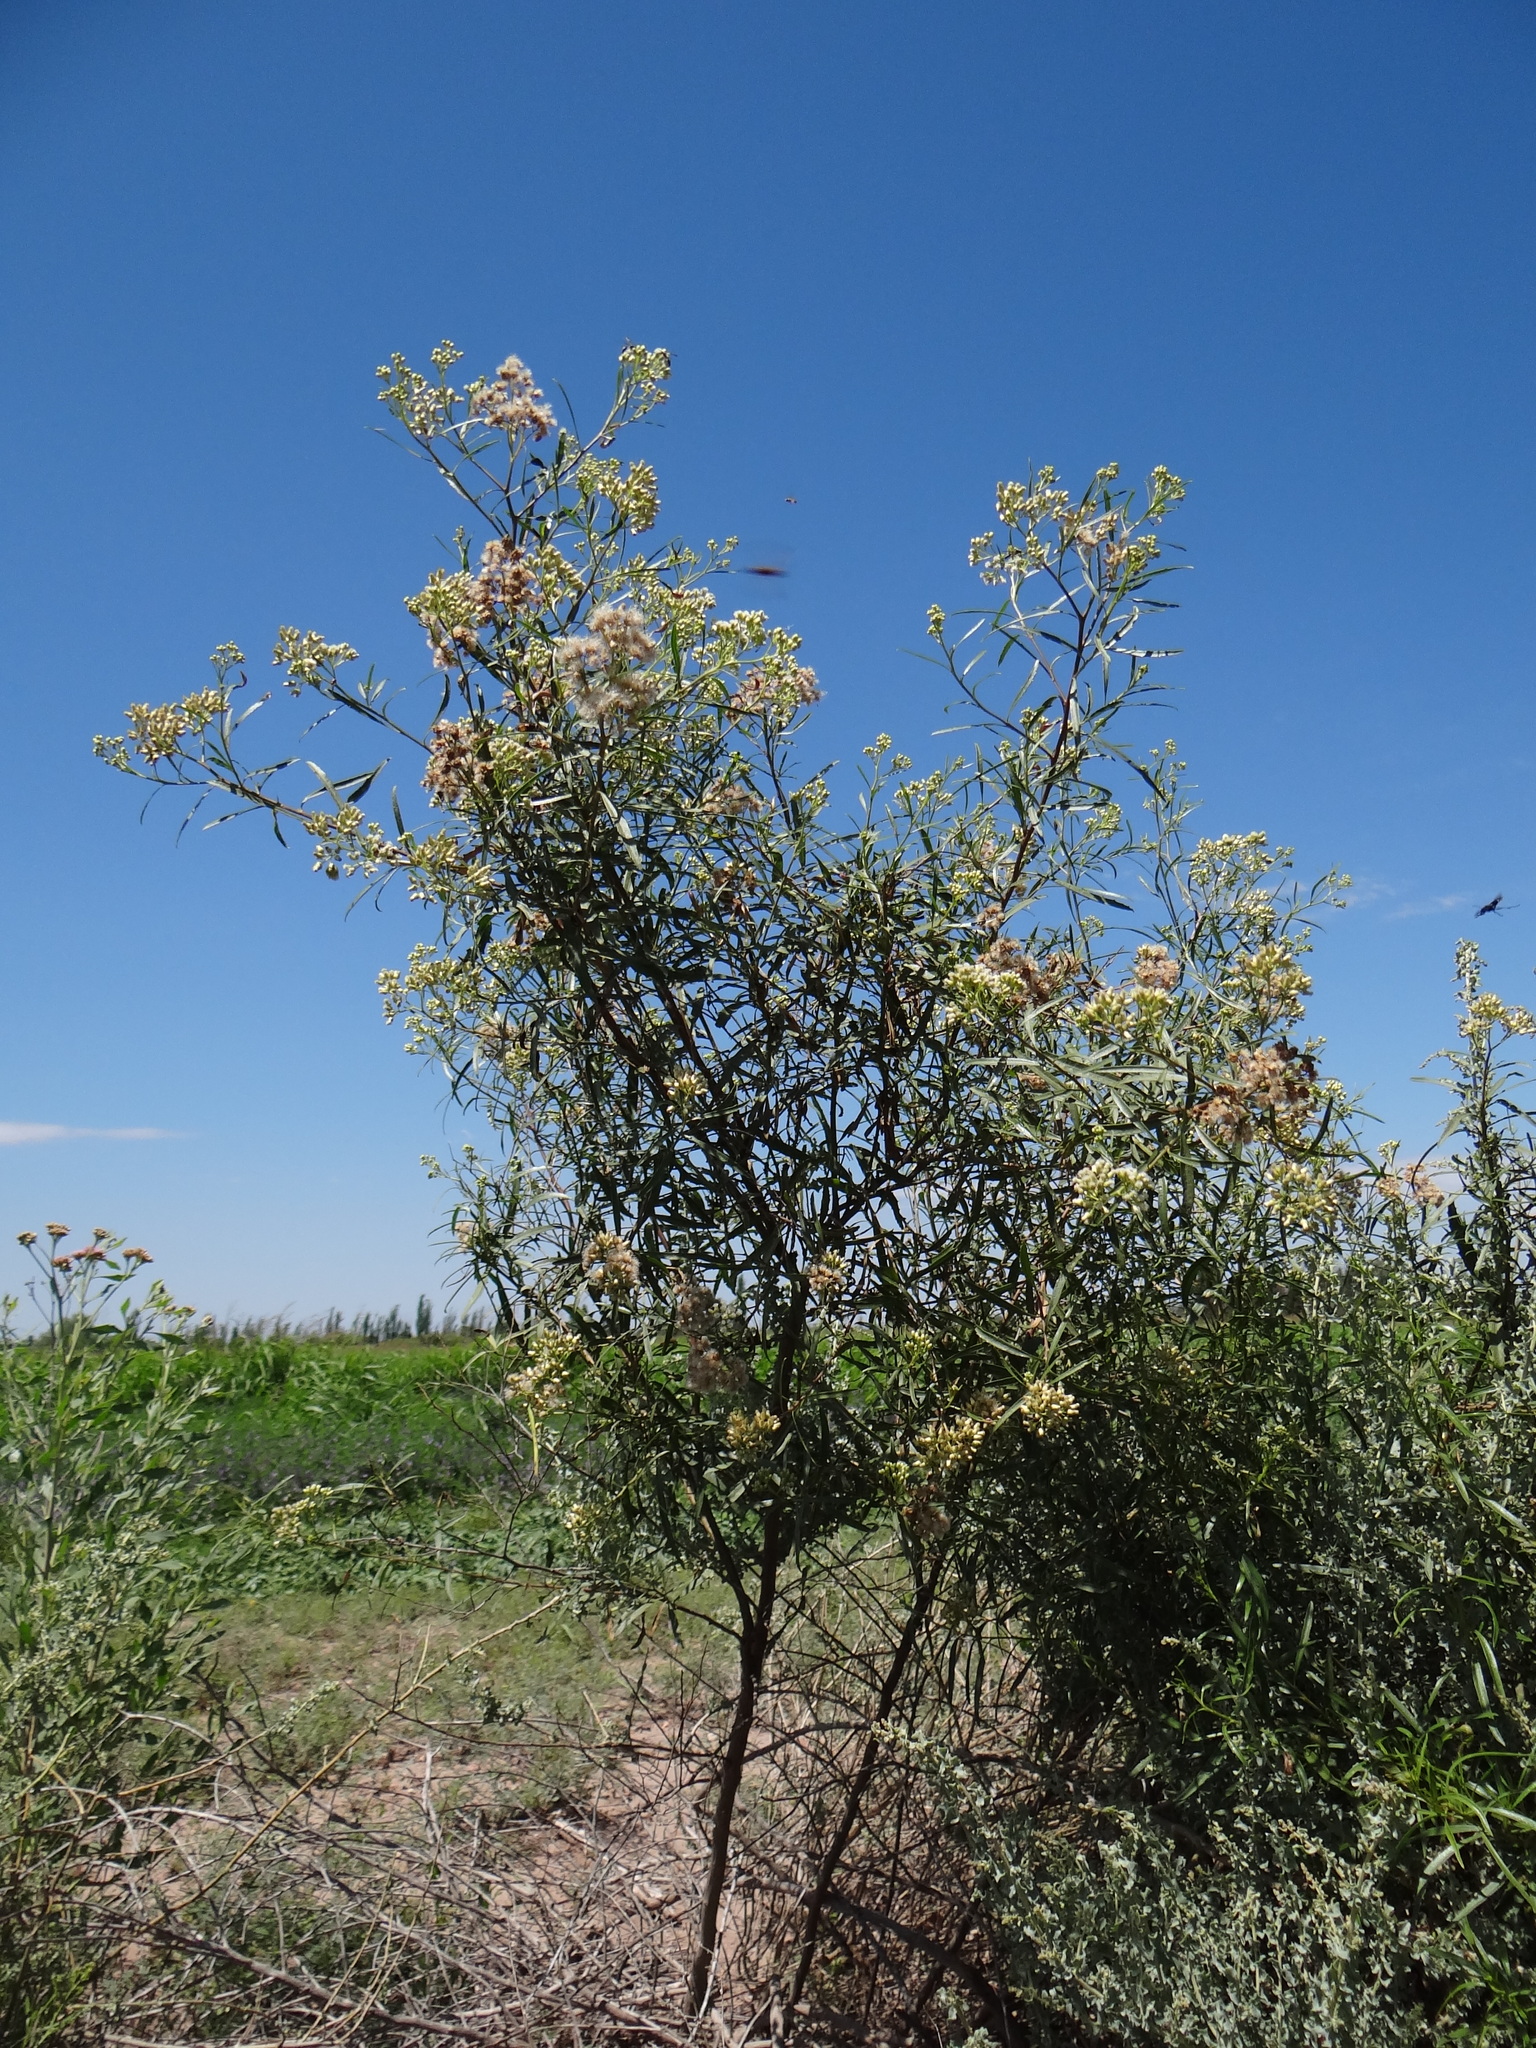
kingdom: Plantae
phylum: Tracheophyta
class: Magnoliopsida
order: Asterales
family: Asteraceae
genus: Baccharis
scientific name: Baccharis salicifolia
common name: Sticky baccharis
